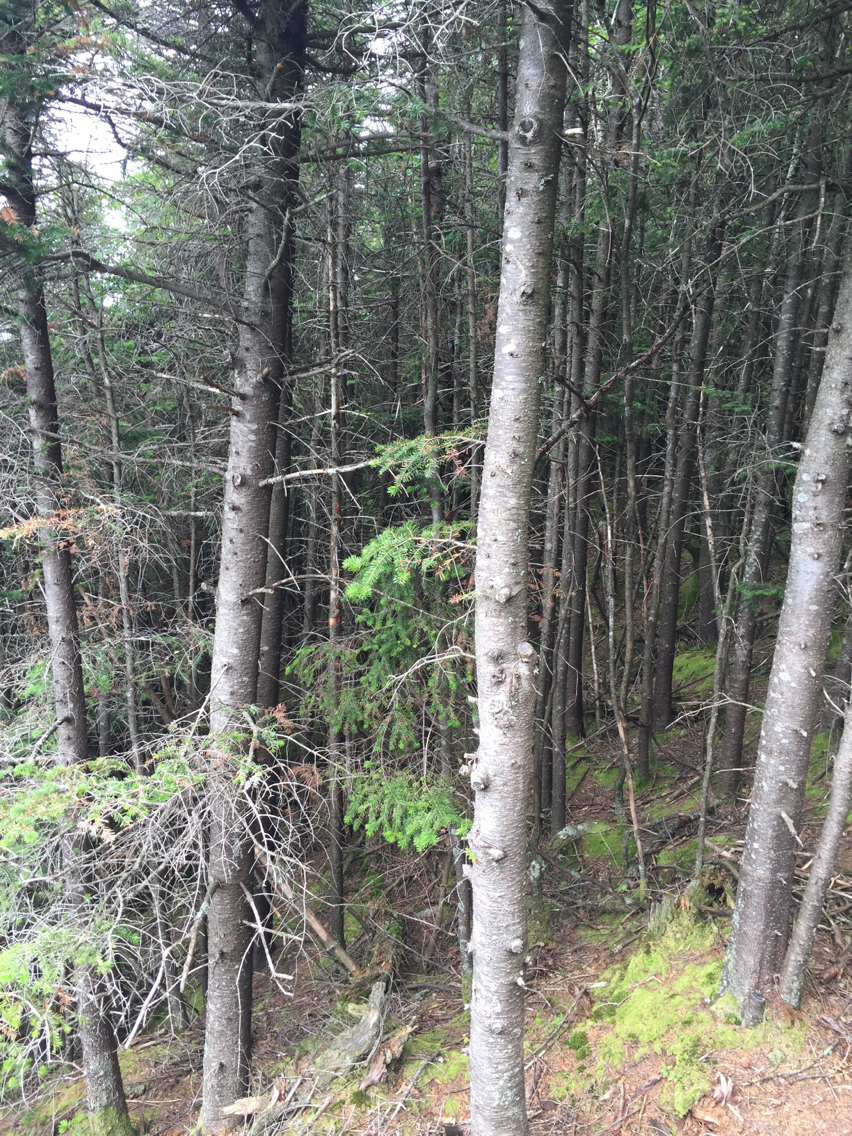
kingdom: Plantae
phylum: Tracheophyta
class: Pinopsida
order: Pinales
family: Pinaceae
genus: Abies
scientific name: Abies balsamea
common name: Balsam fir
